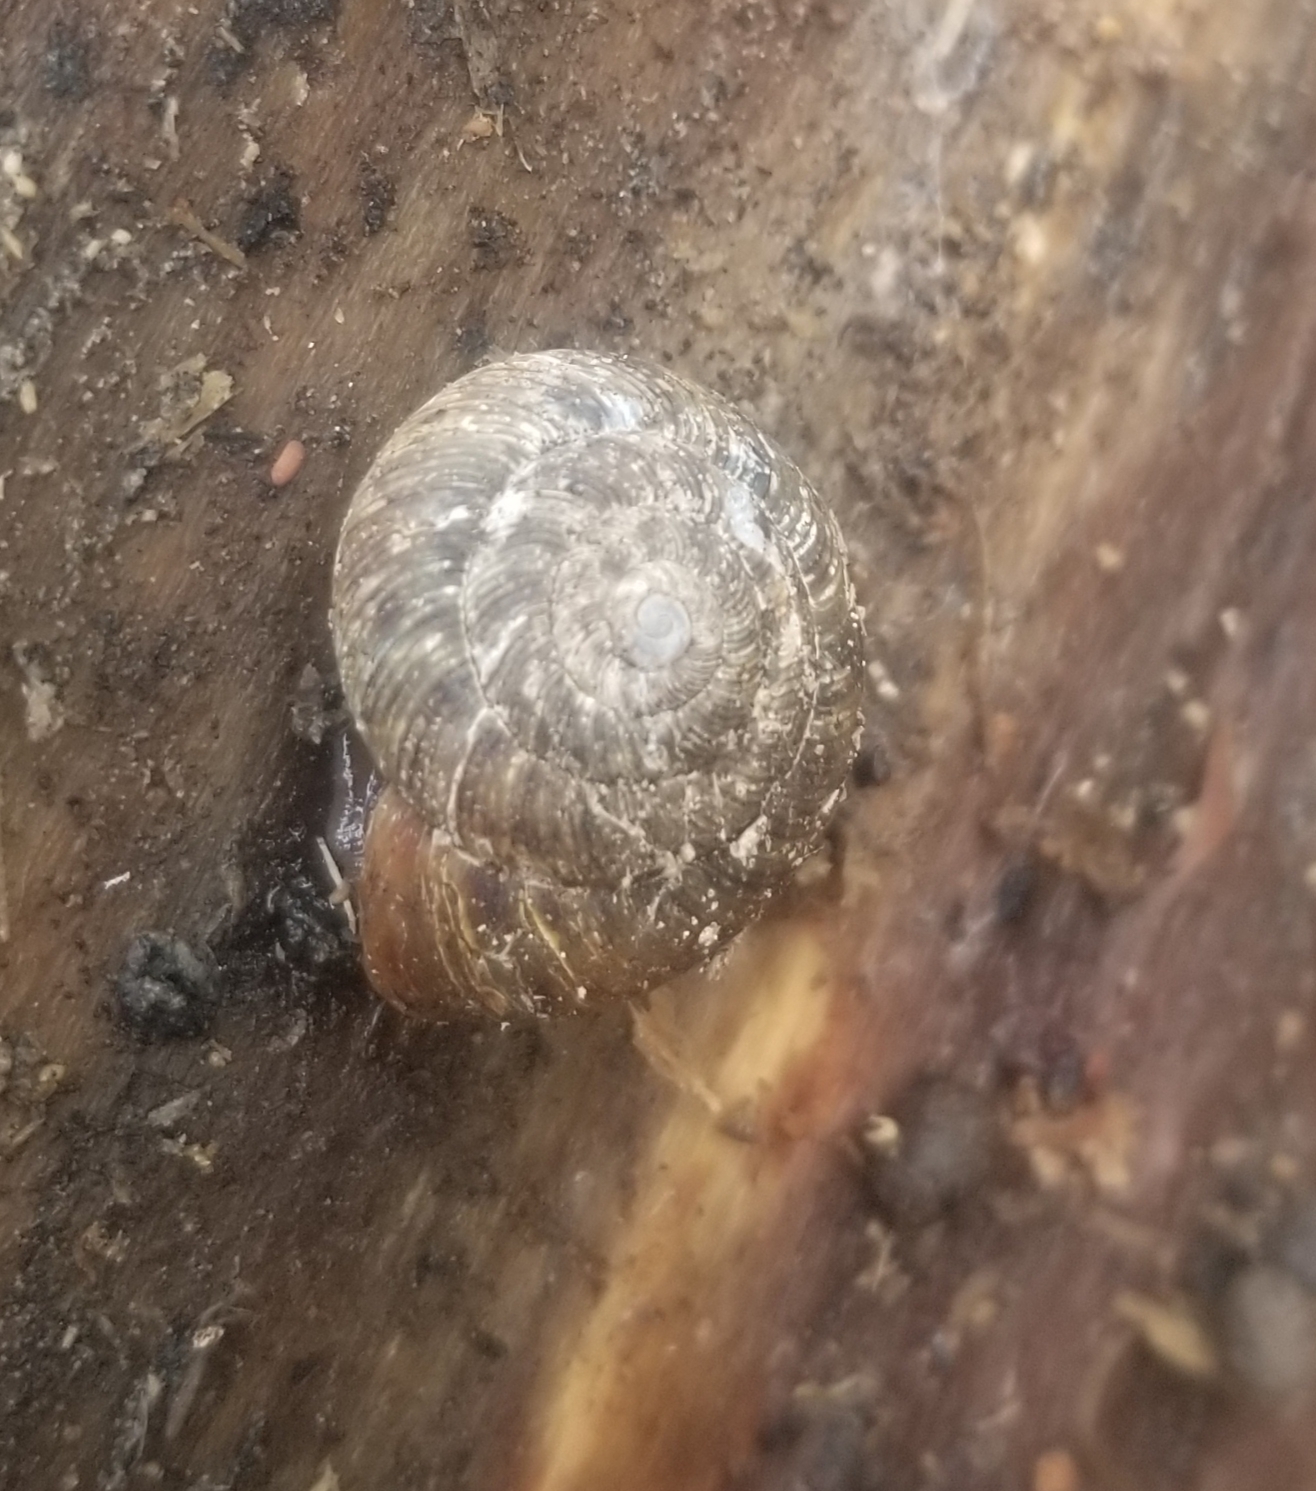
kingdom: Animalia
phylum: Mollusca
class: Gastropoda
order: Stylommatophora
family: Discidae
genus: Anguispira
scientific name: Anguispira alternata
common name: Flamed tigersnail
